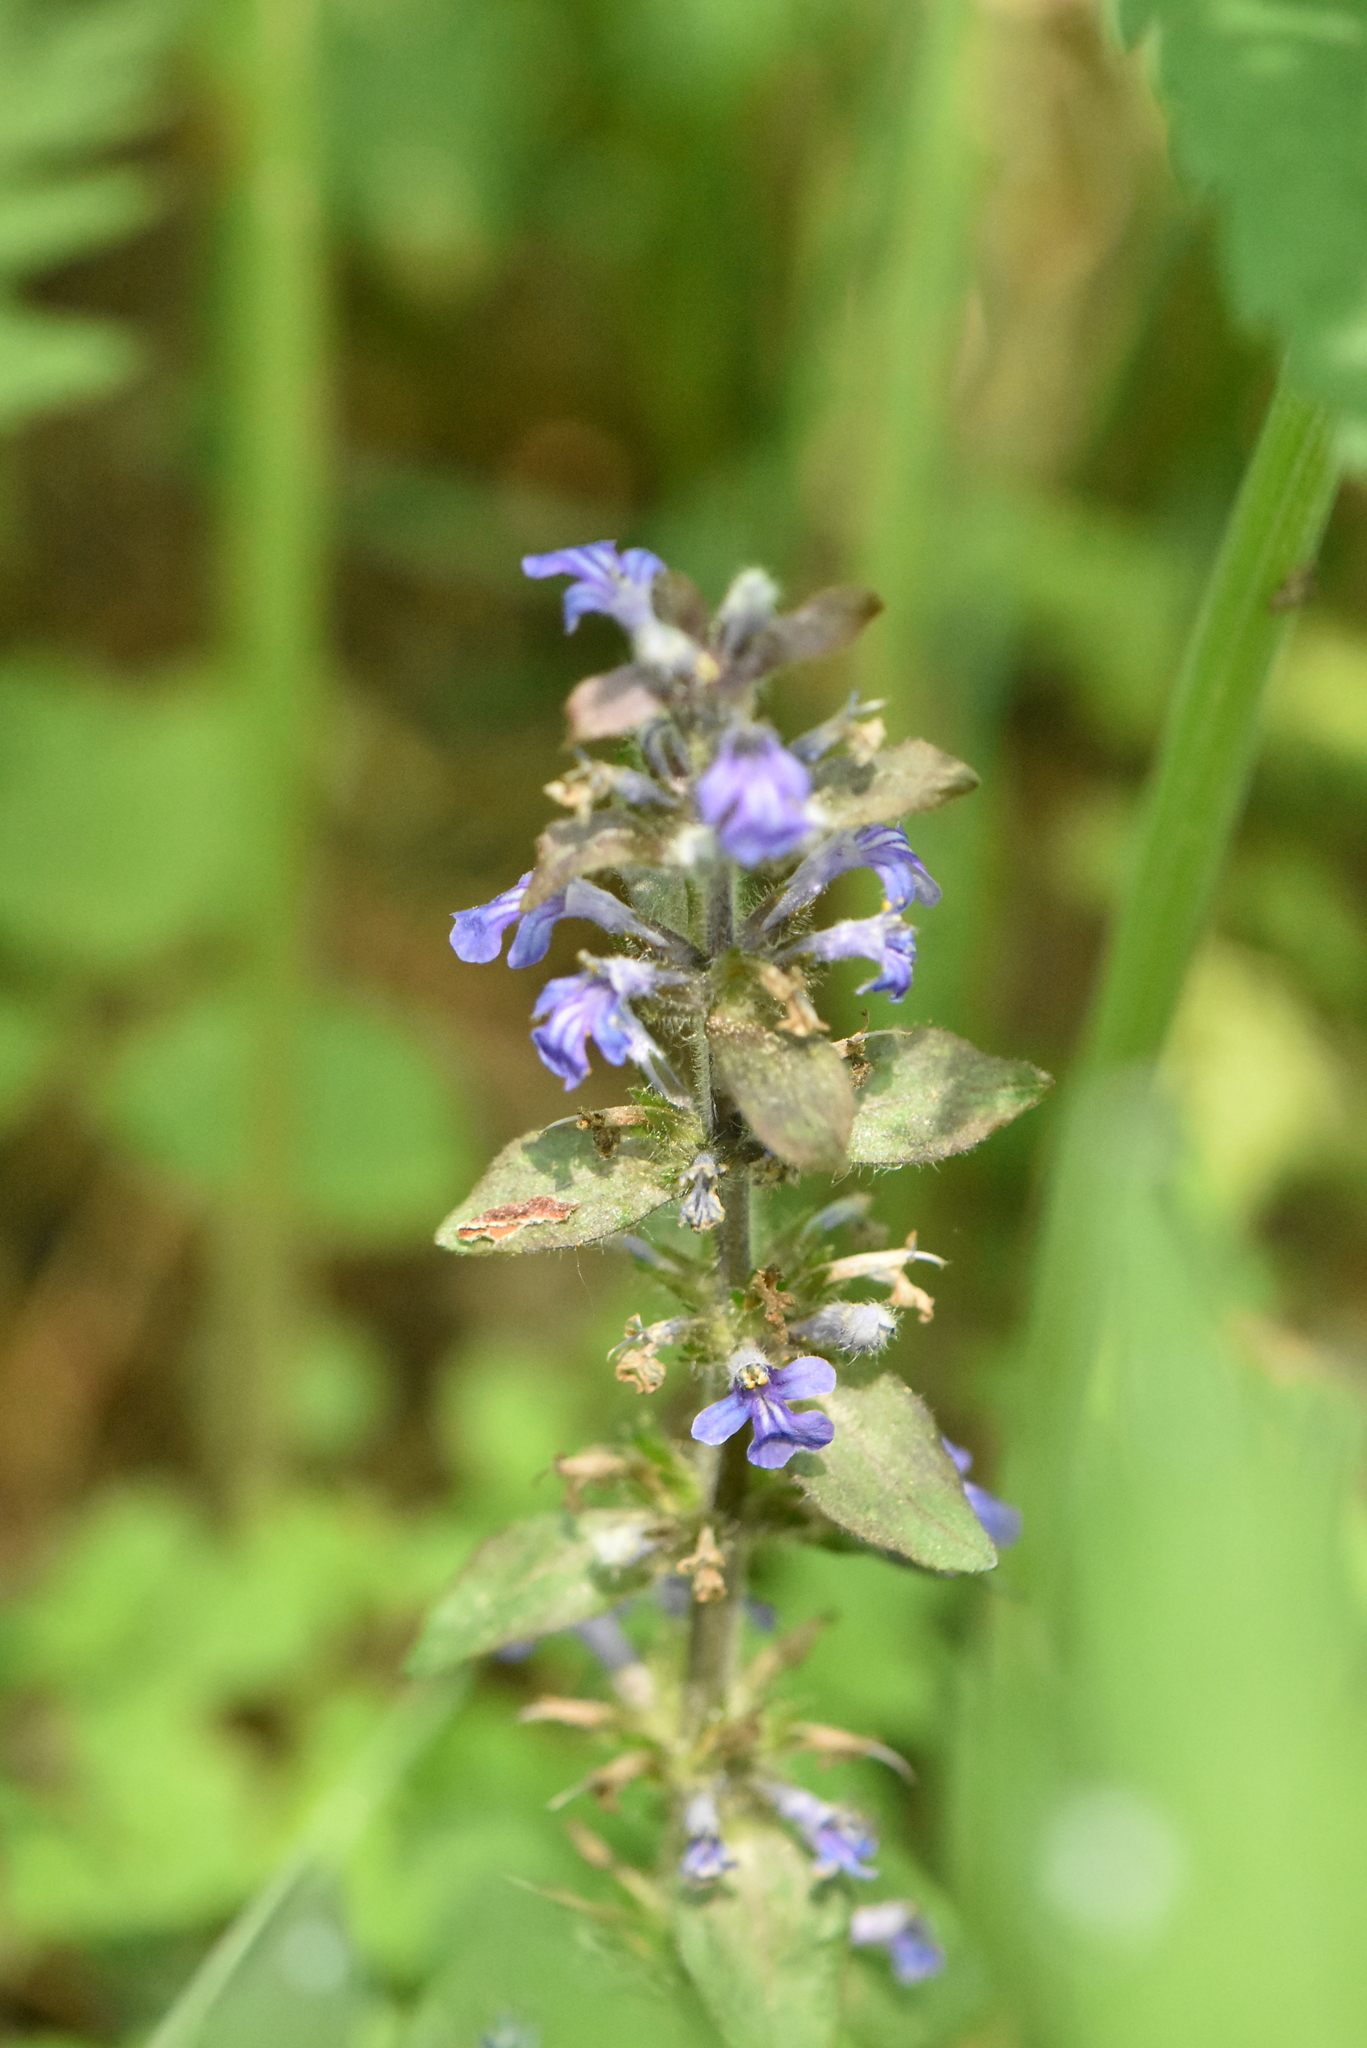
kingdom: Plantae
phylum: Tracheophyta
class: Magnoliopsida
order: Lamiales
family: Lamiaceae
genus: Ajuga
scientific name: Ajuga reptans
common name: Bugle
